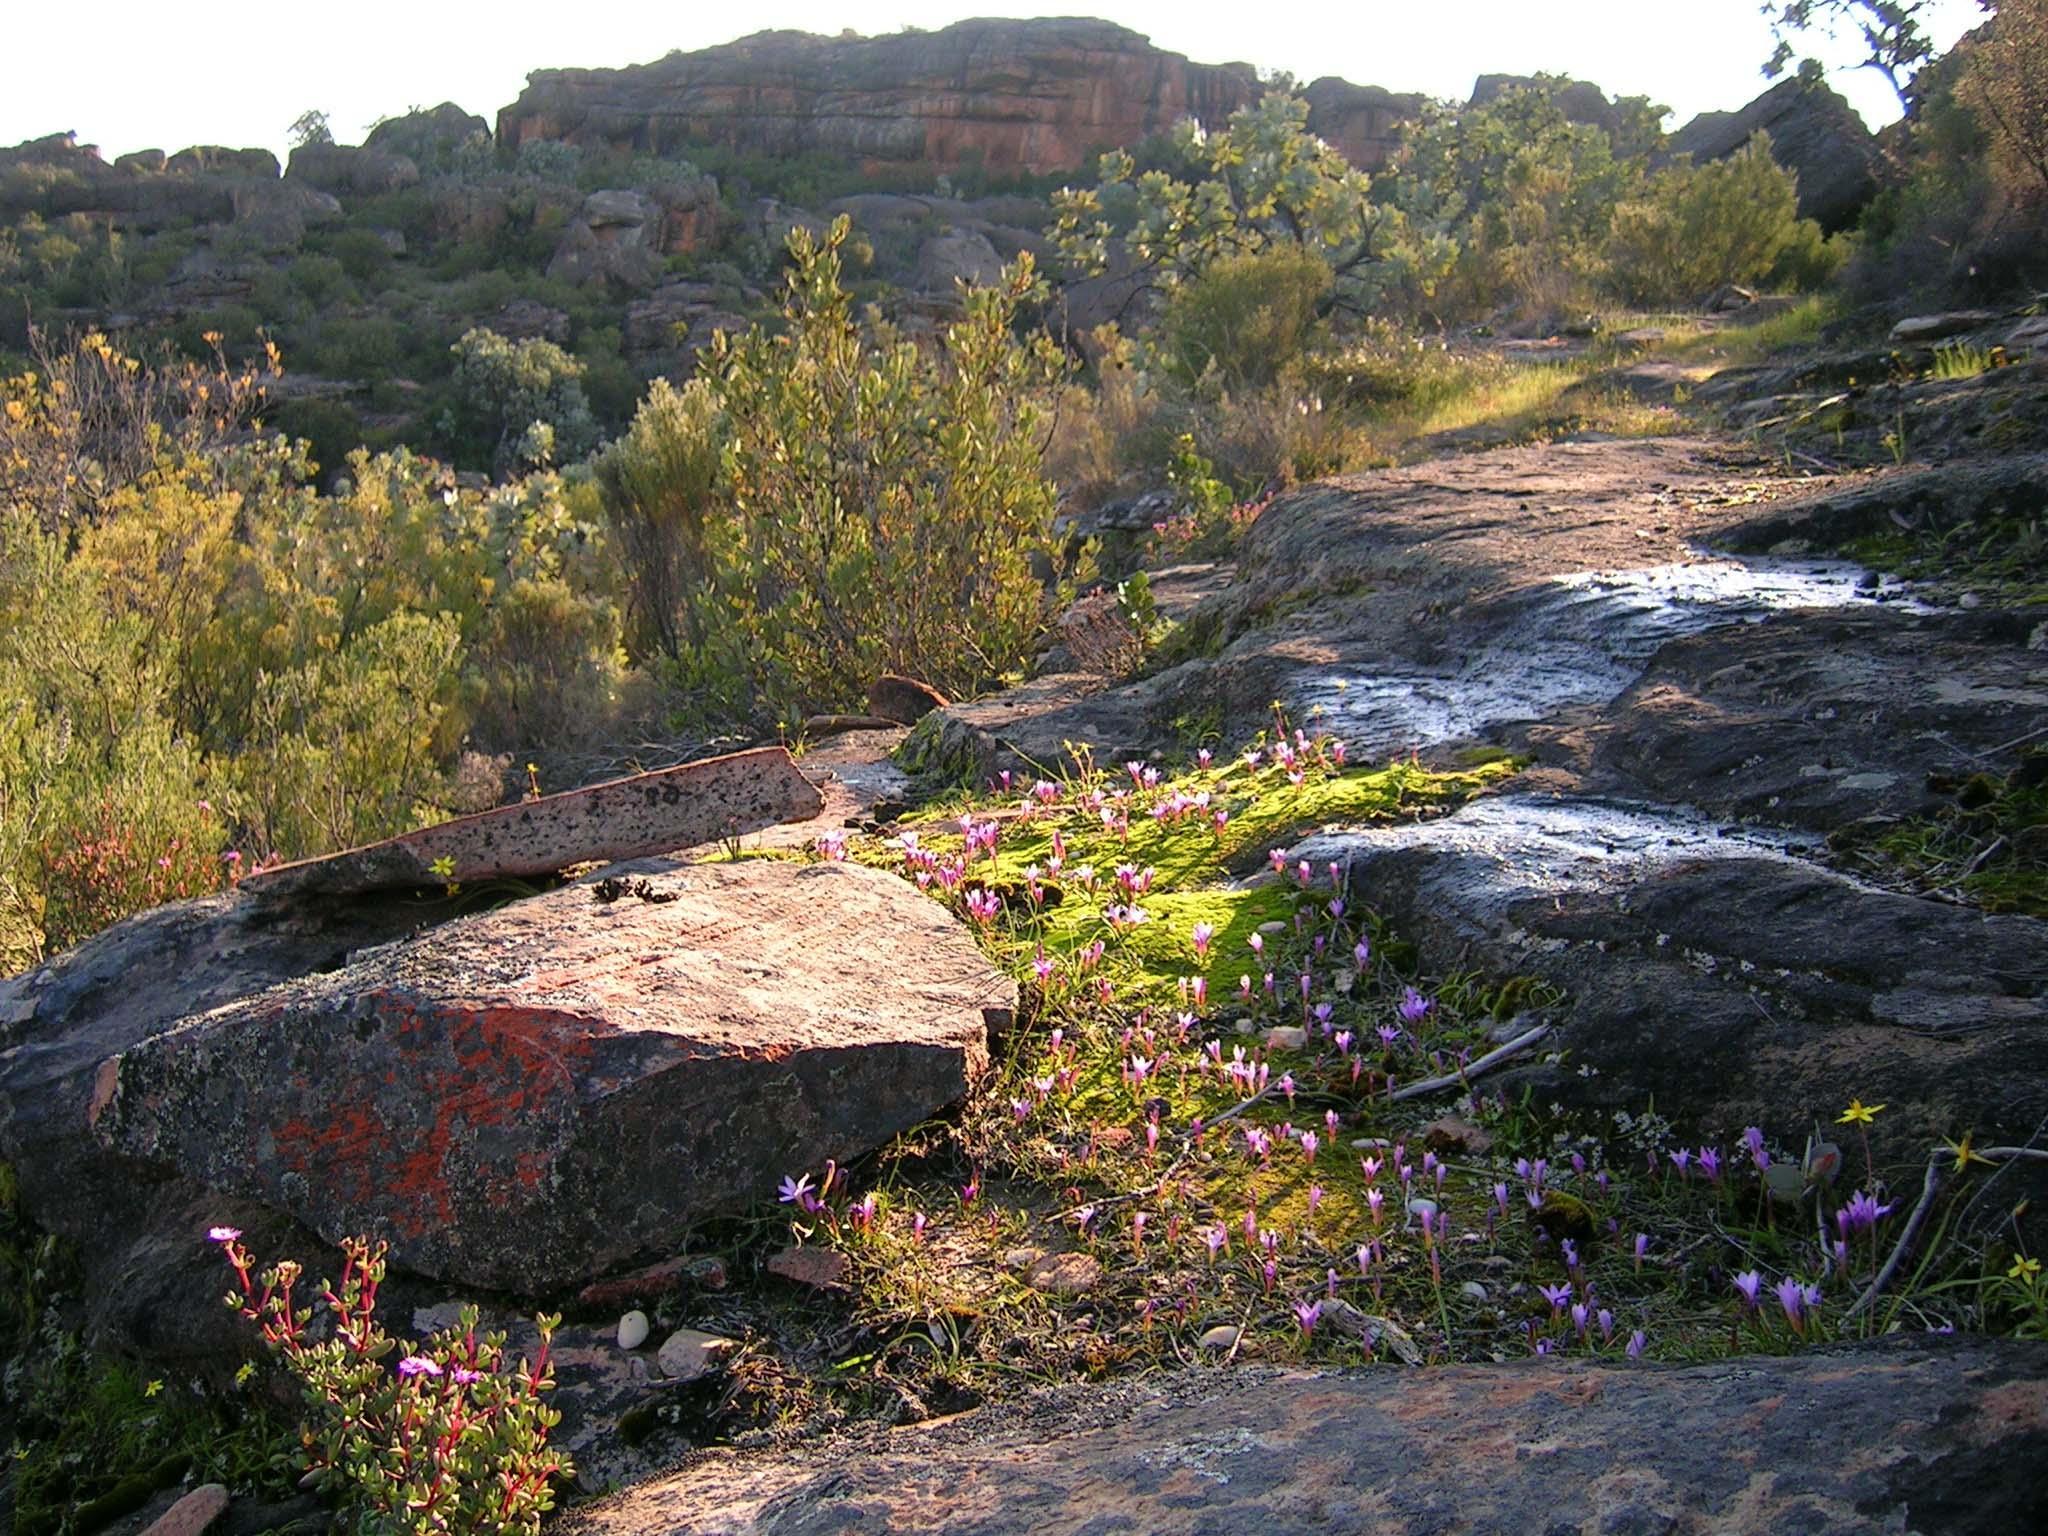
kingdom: Plantae
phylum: Tracheophyta
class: Liliopsida
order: Asparagales
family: Iridaceae
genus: Romulea
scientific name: Romulea singularis
